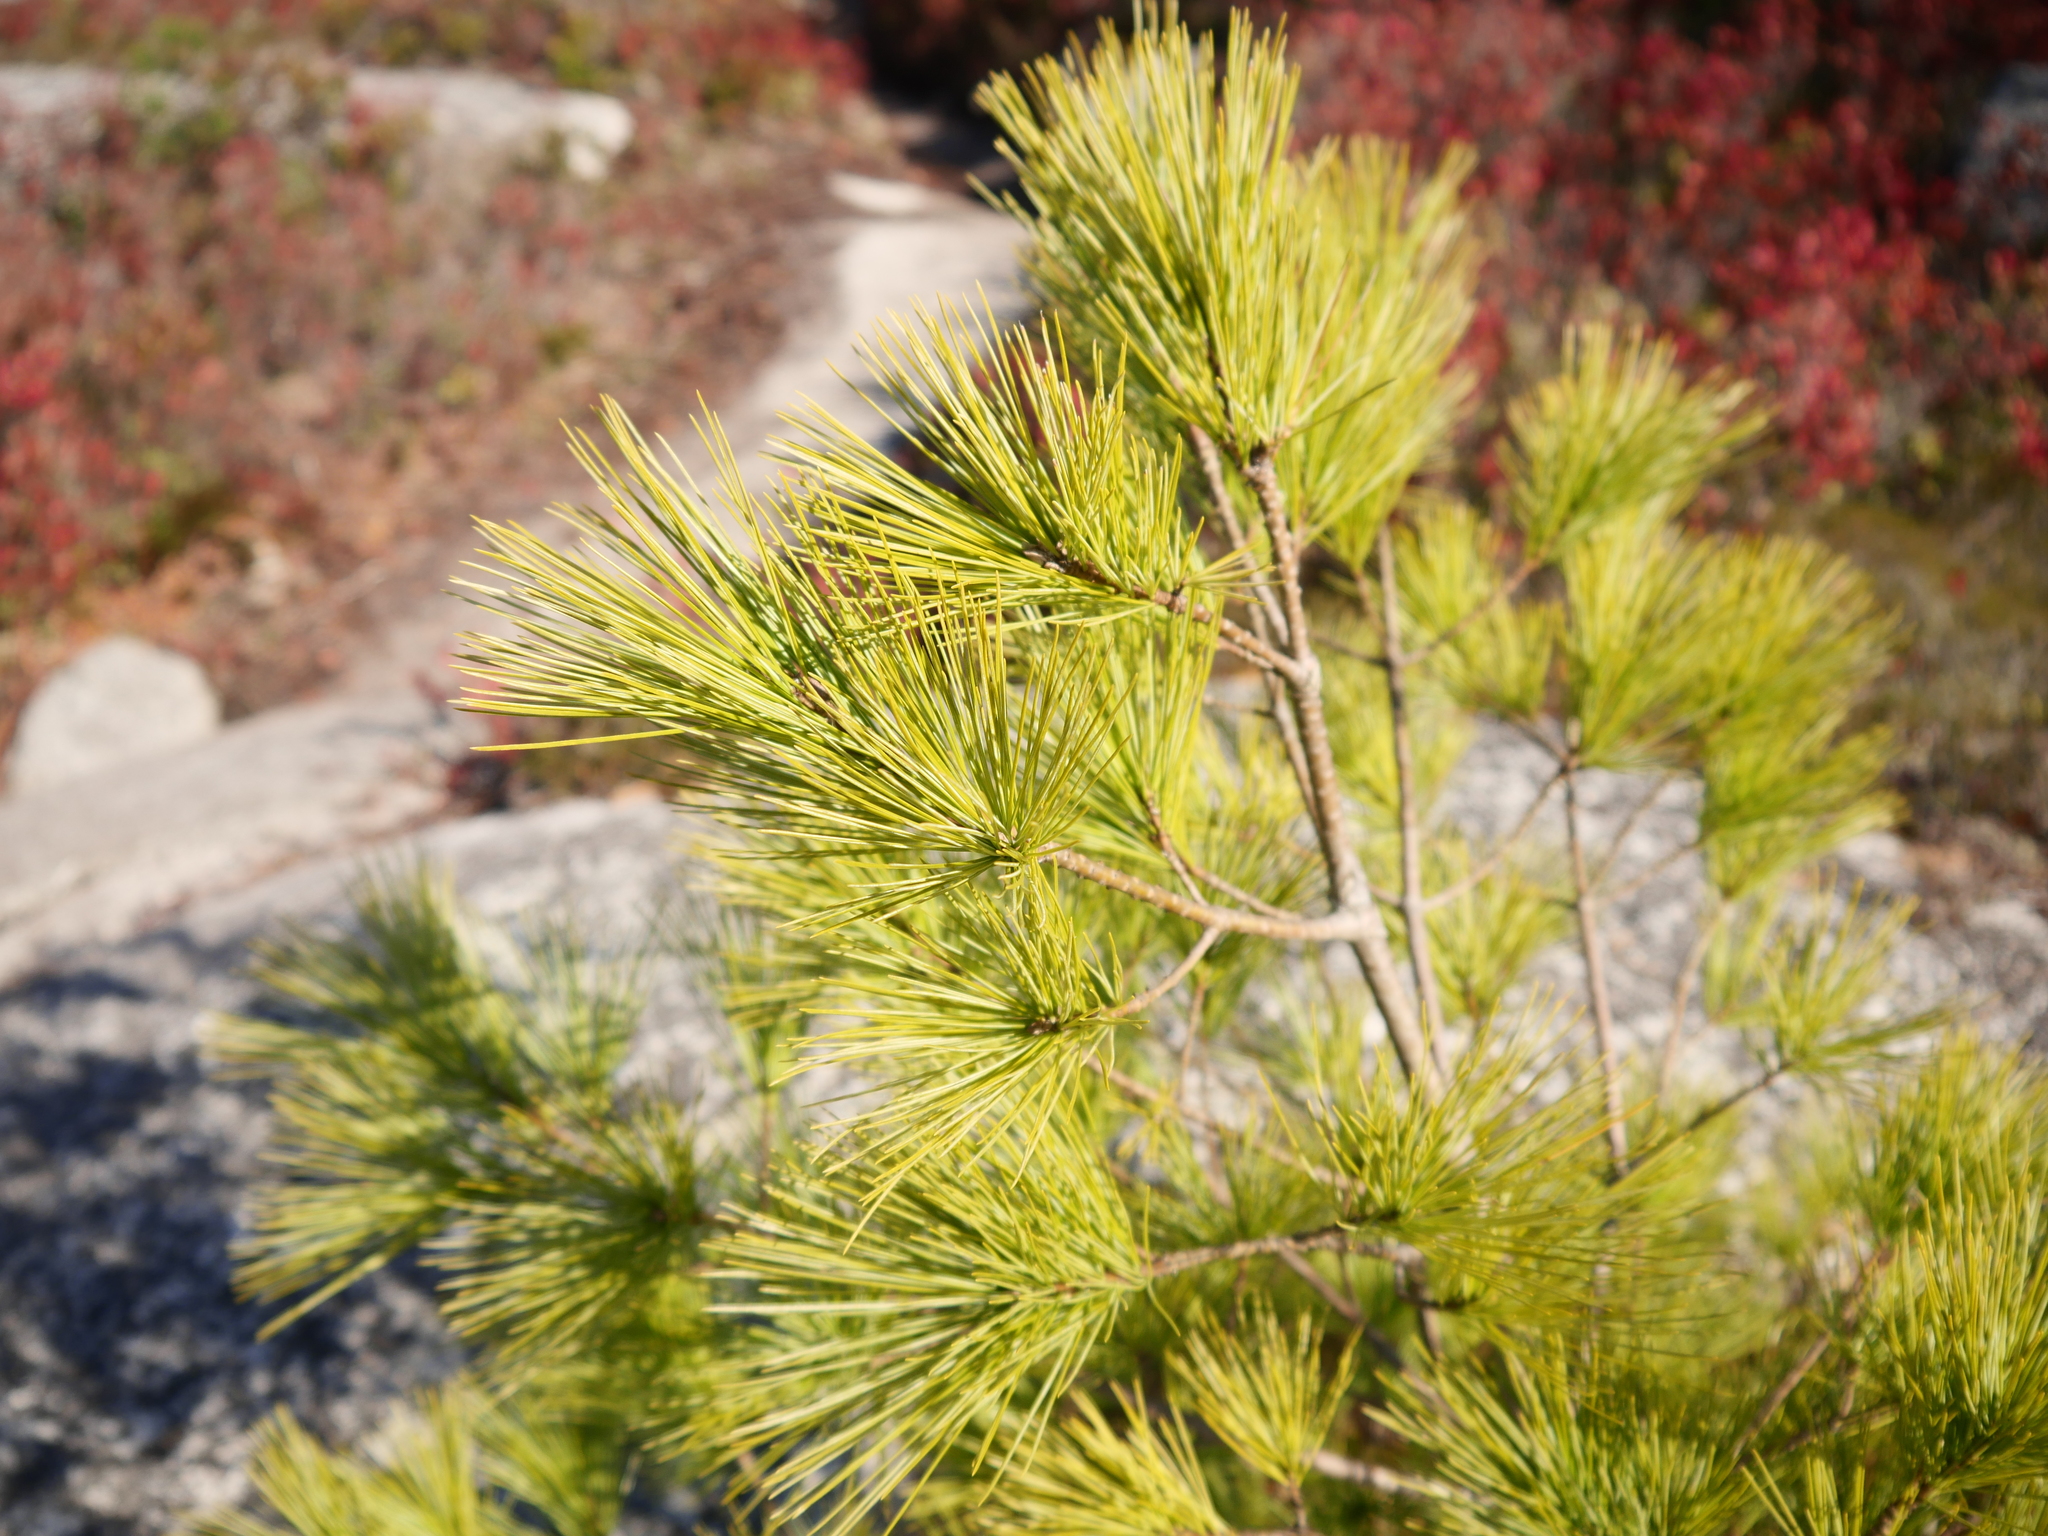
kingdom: Plantae
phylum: Tracheophyta
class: Pinopsida
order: Pinales
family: Pinaceae
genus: Pinus
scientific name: Pinus strobus
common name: Weymouth pine
